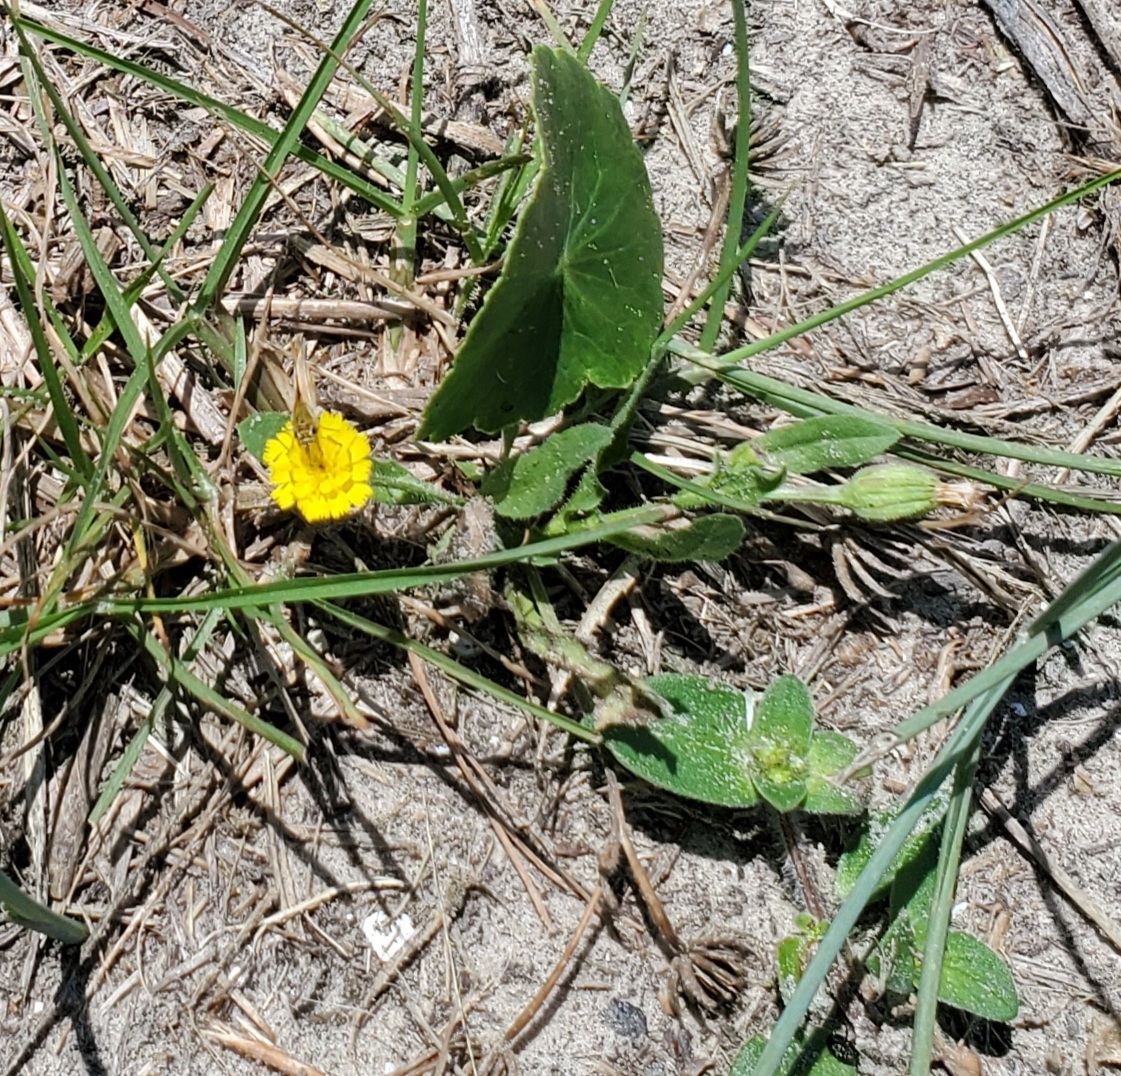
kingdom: Plantae
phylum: Tracheophyta
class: Magnoliopsida
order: Asterales
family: Asteraceae
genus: Hedypnois
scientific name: Hedypnois rhagadioloides
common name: Cretan weed
